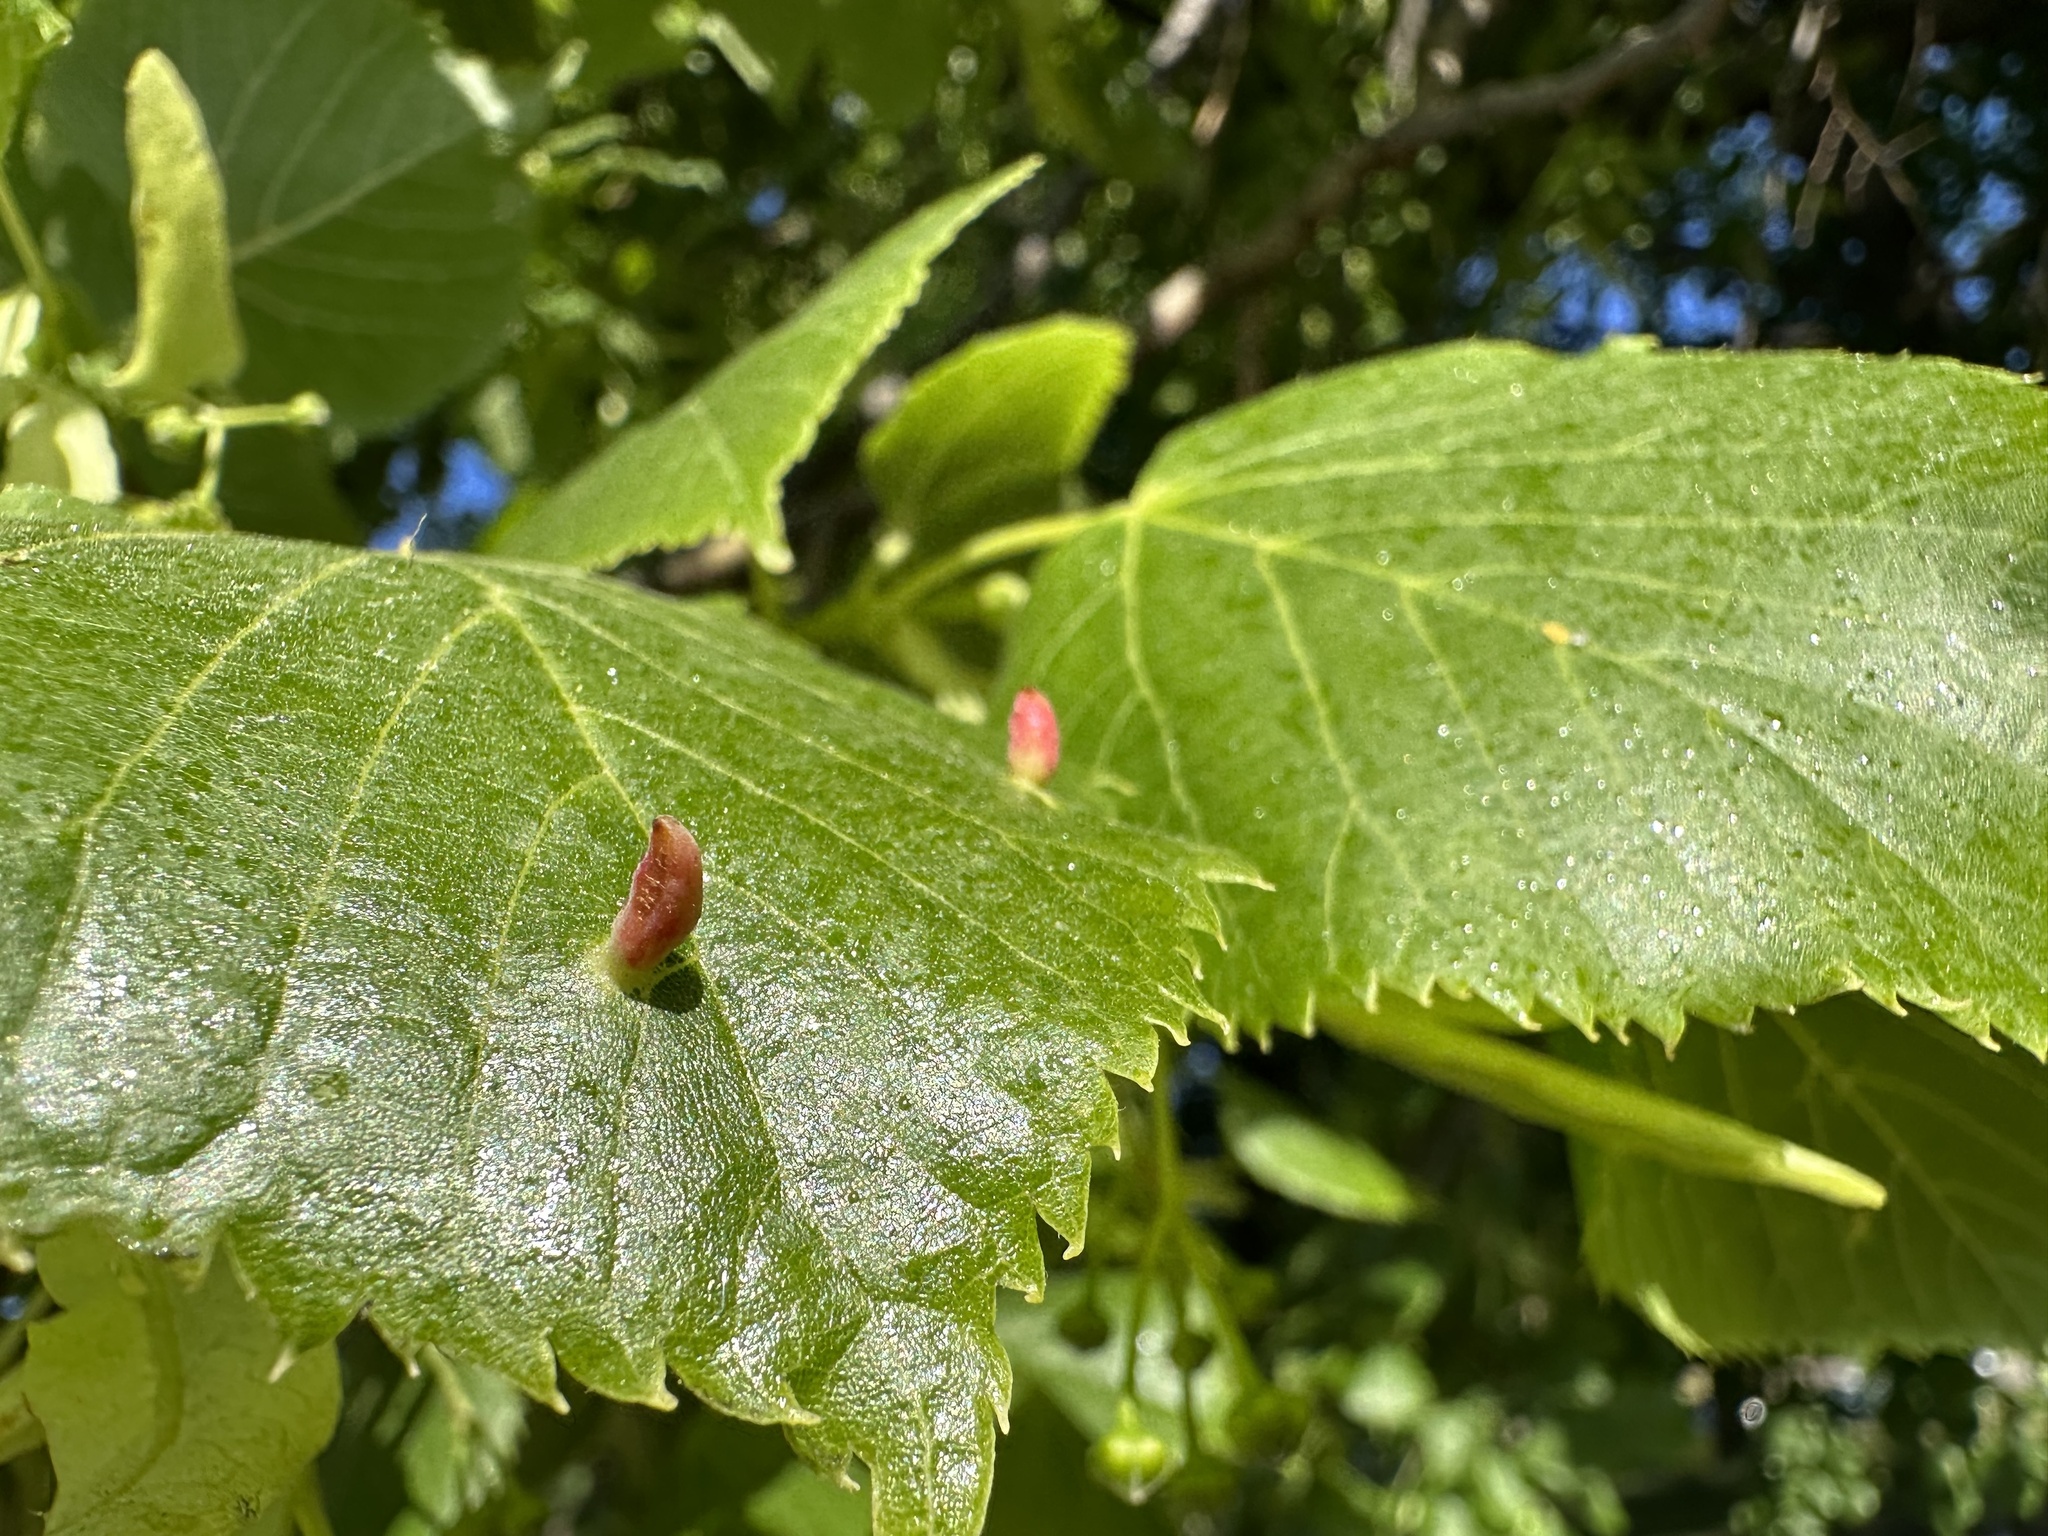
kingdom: Animalia
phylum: Arthropoda
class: Arachnida
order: Trombidiformes
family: Eriophyidae
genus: Eriophyes
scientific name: Eriophyes tiliae
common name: Red nail gall mite
